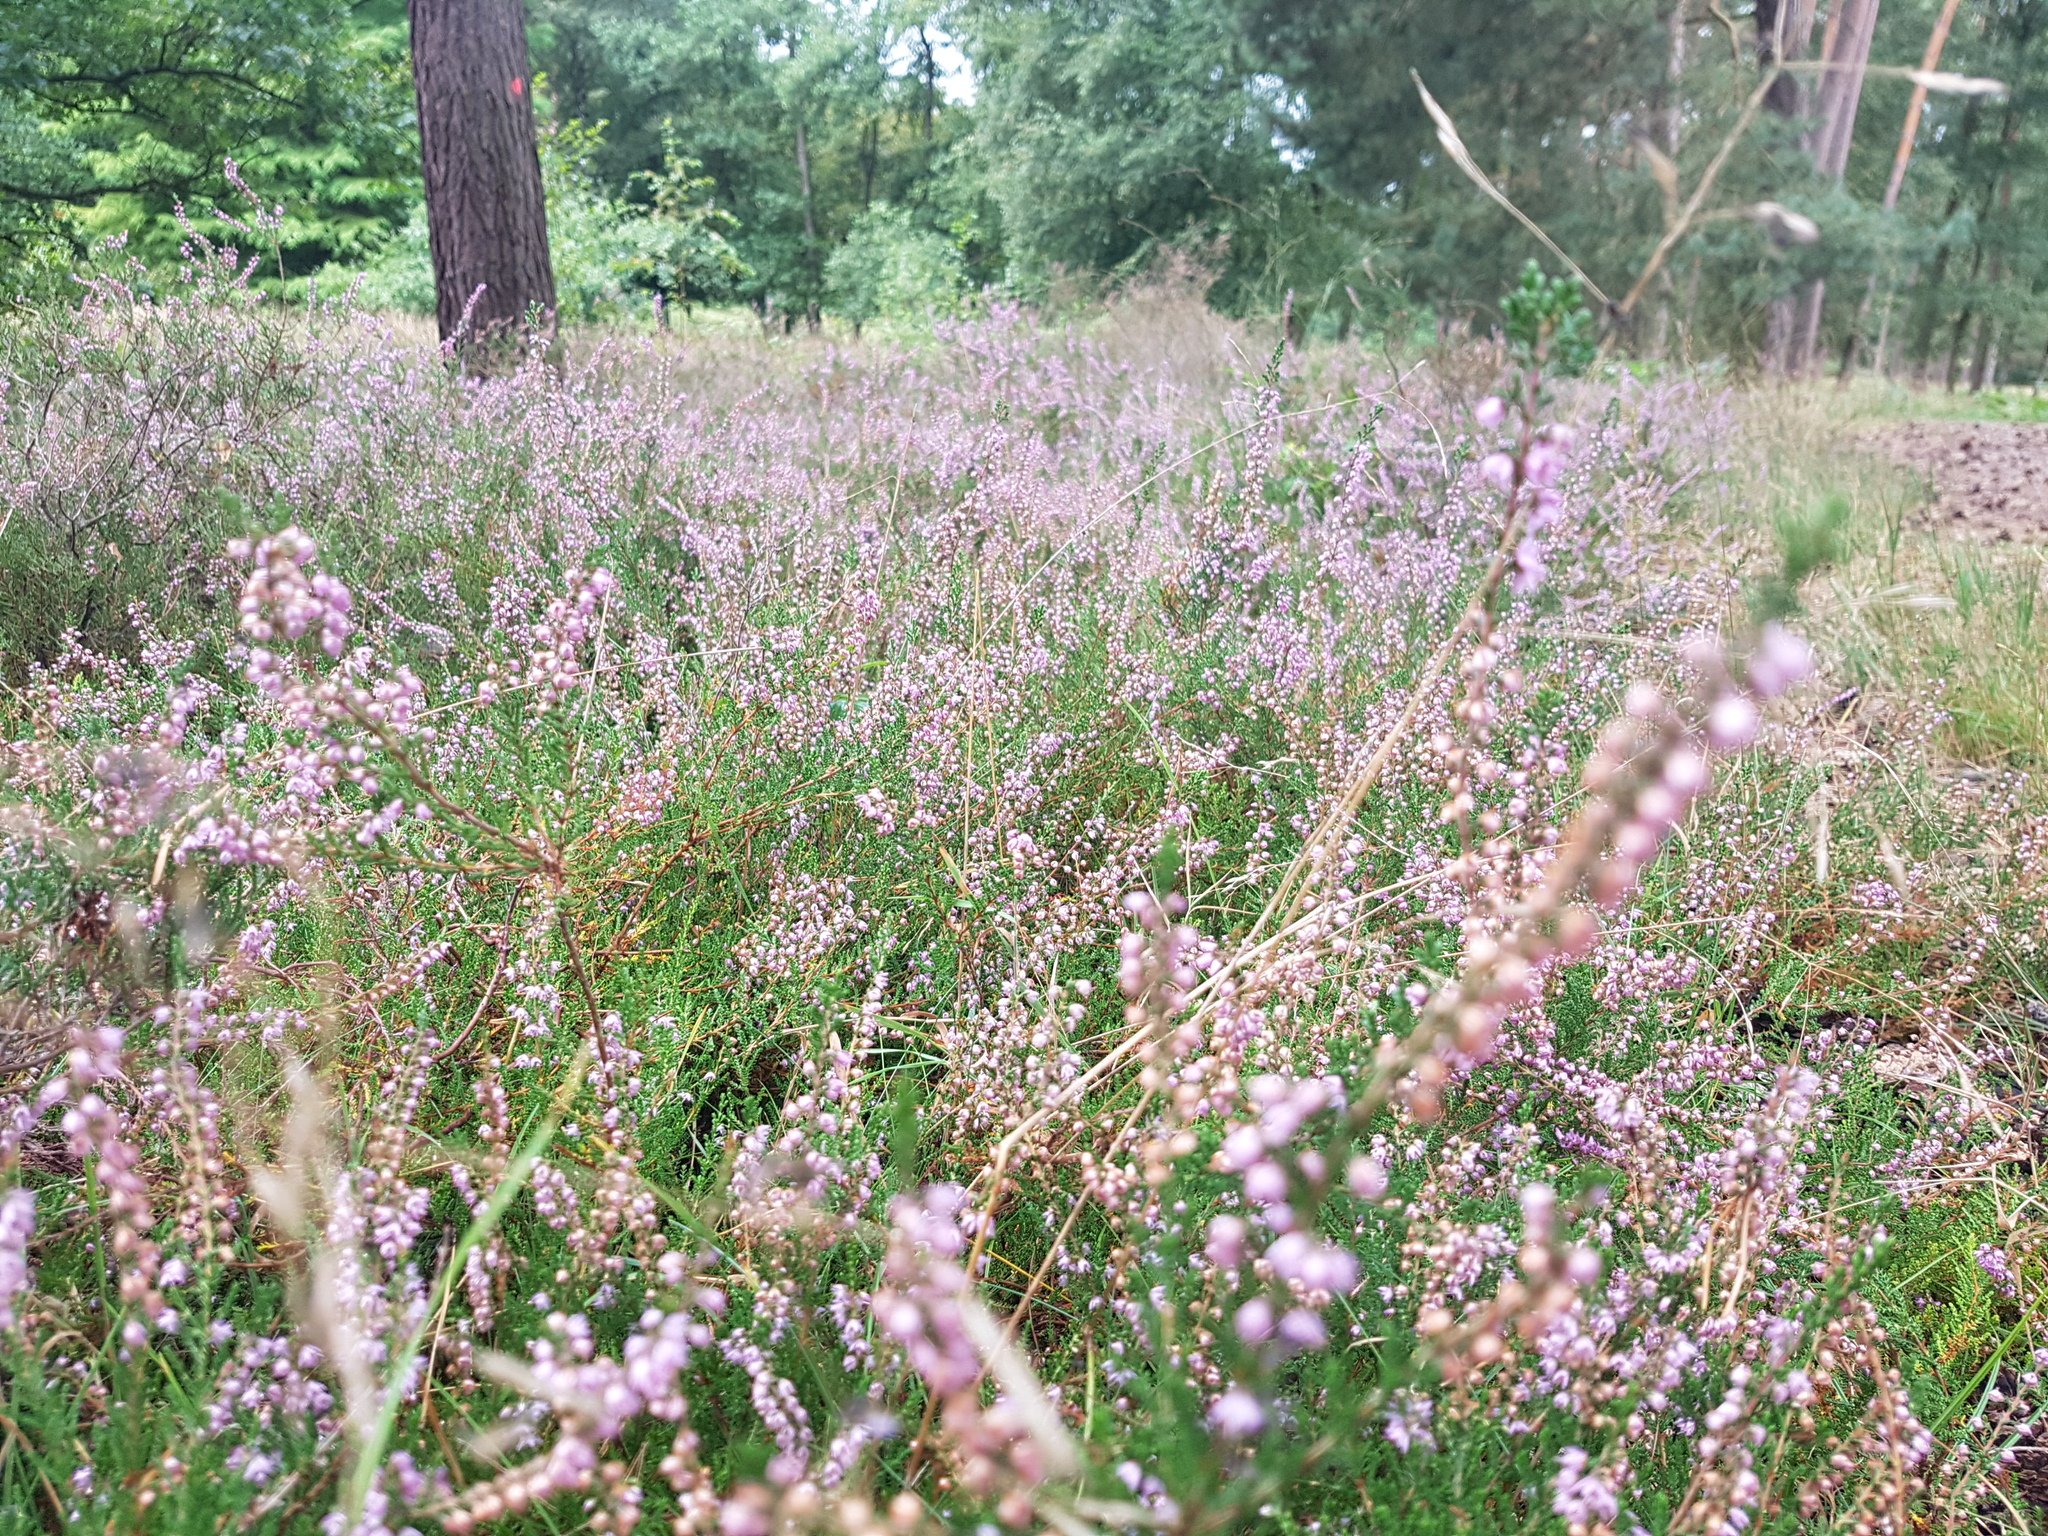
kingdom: Plantae
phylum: Tracheophyta
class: Magnoliopsida
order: Ericales
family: Ericaceae
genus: Calluna
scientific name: Calluna vulgaris
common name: Heather
